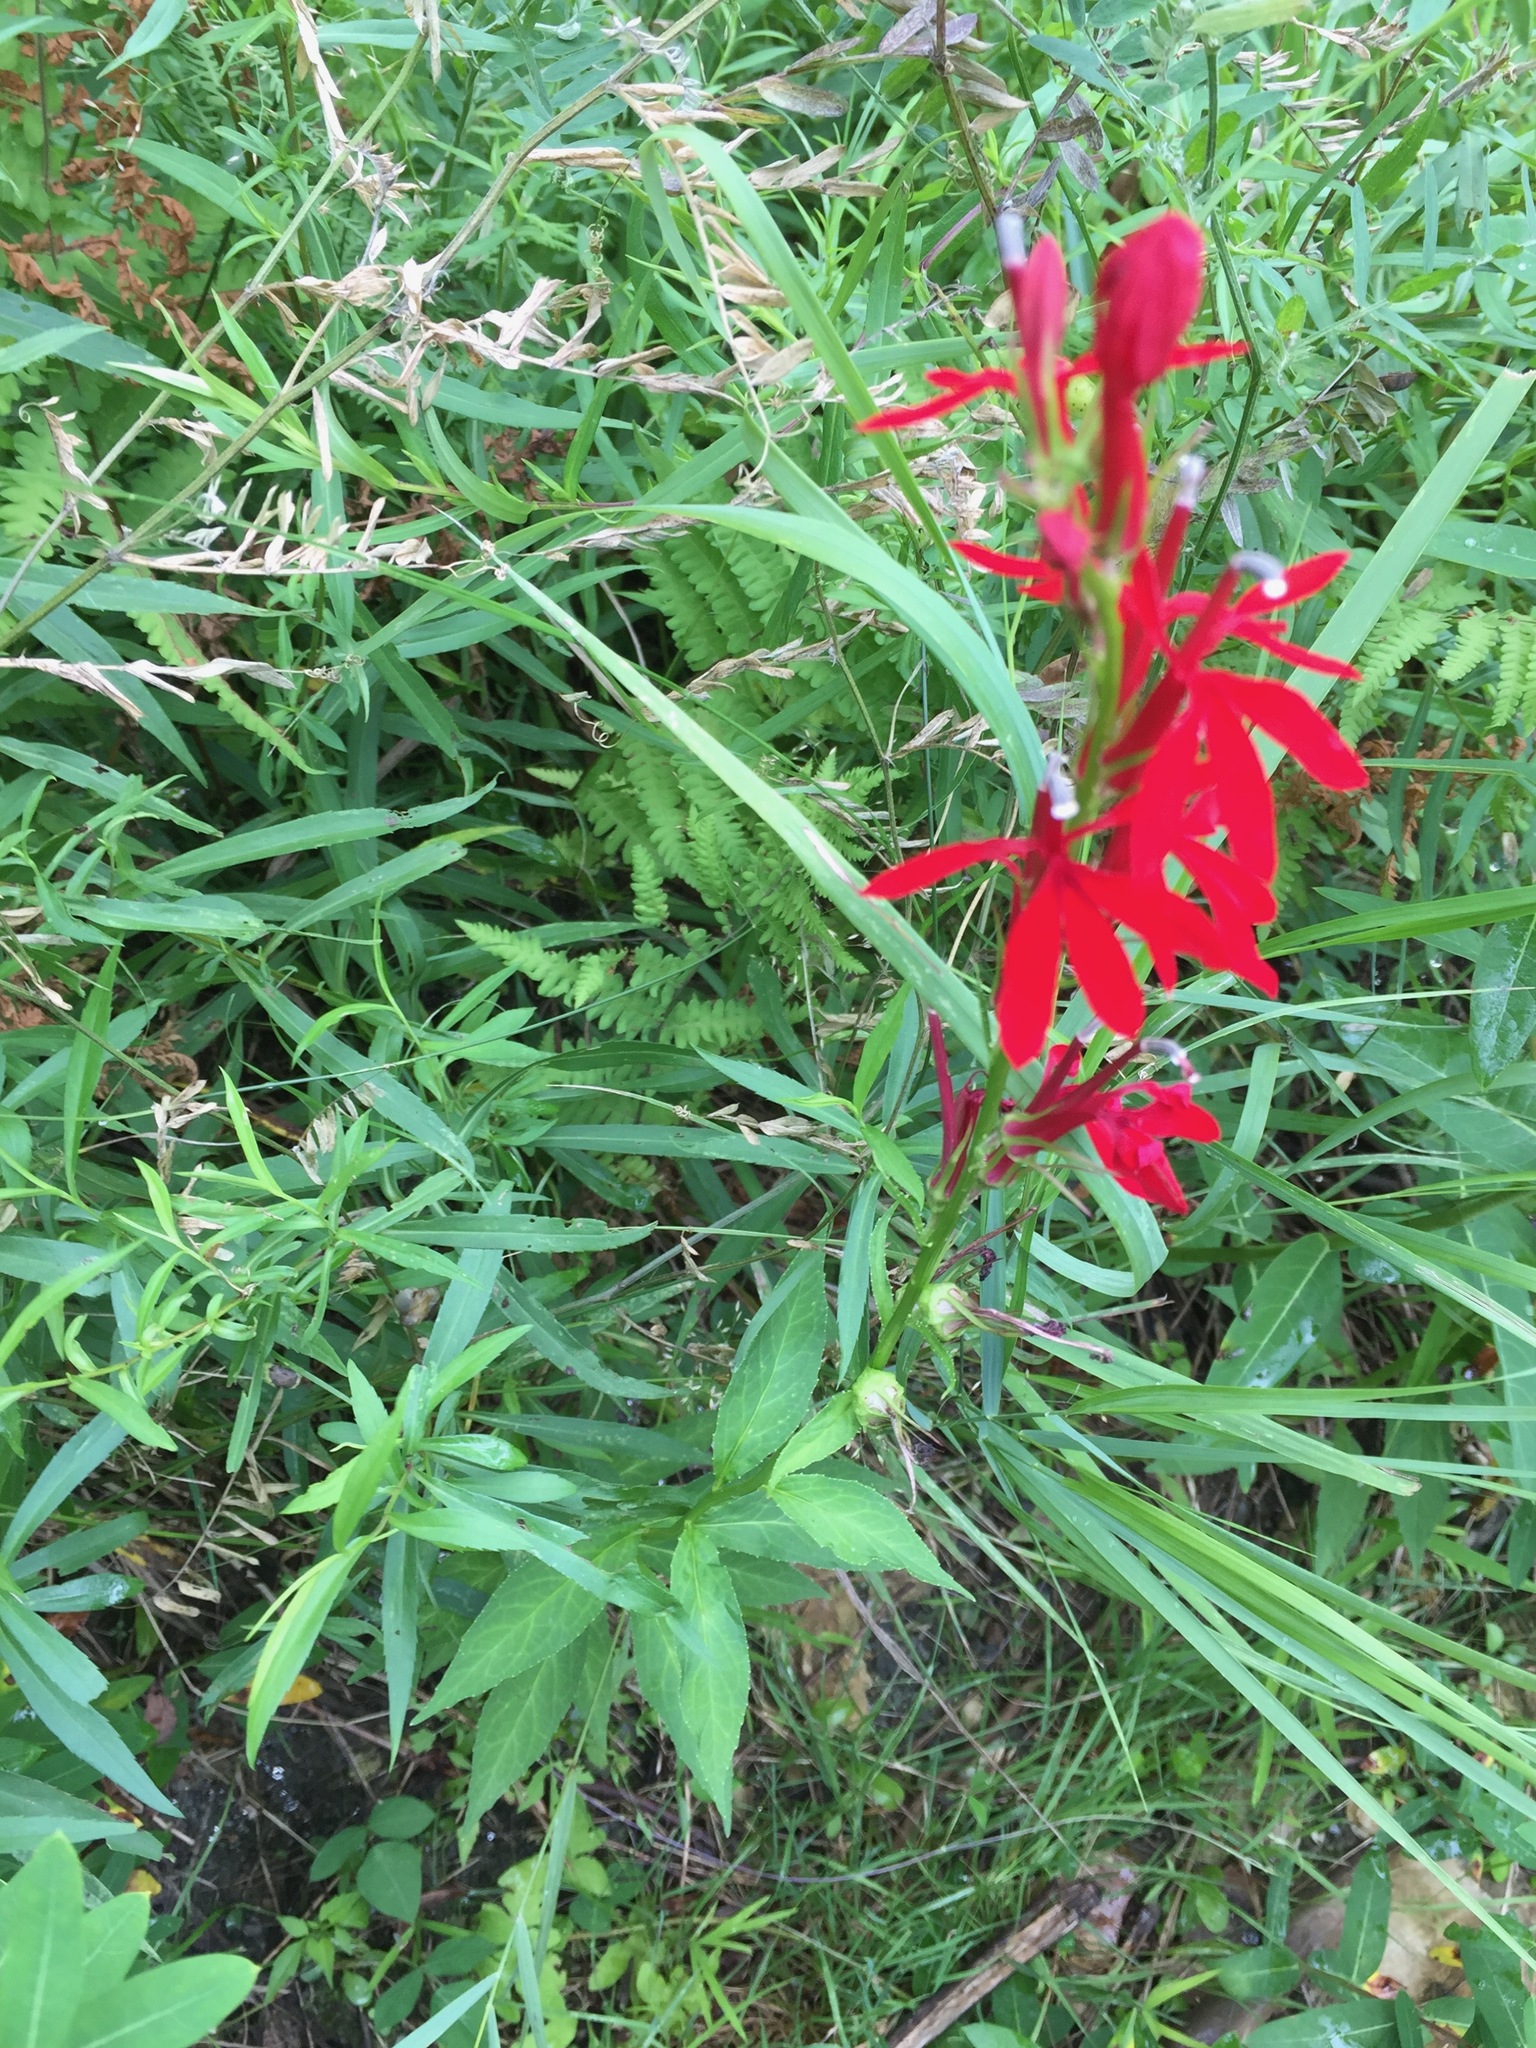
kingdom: Plantae
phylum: Tracheophyta
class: Magnoliopsida
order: Asterales
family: Campanulaceae
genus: Lobelia
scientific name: Lobelia cardinalis
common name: Cardinal flower
